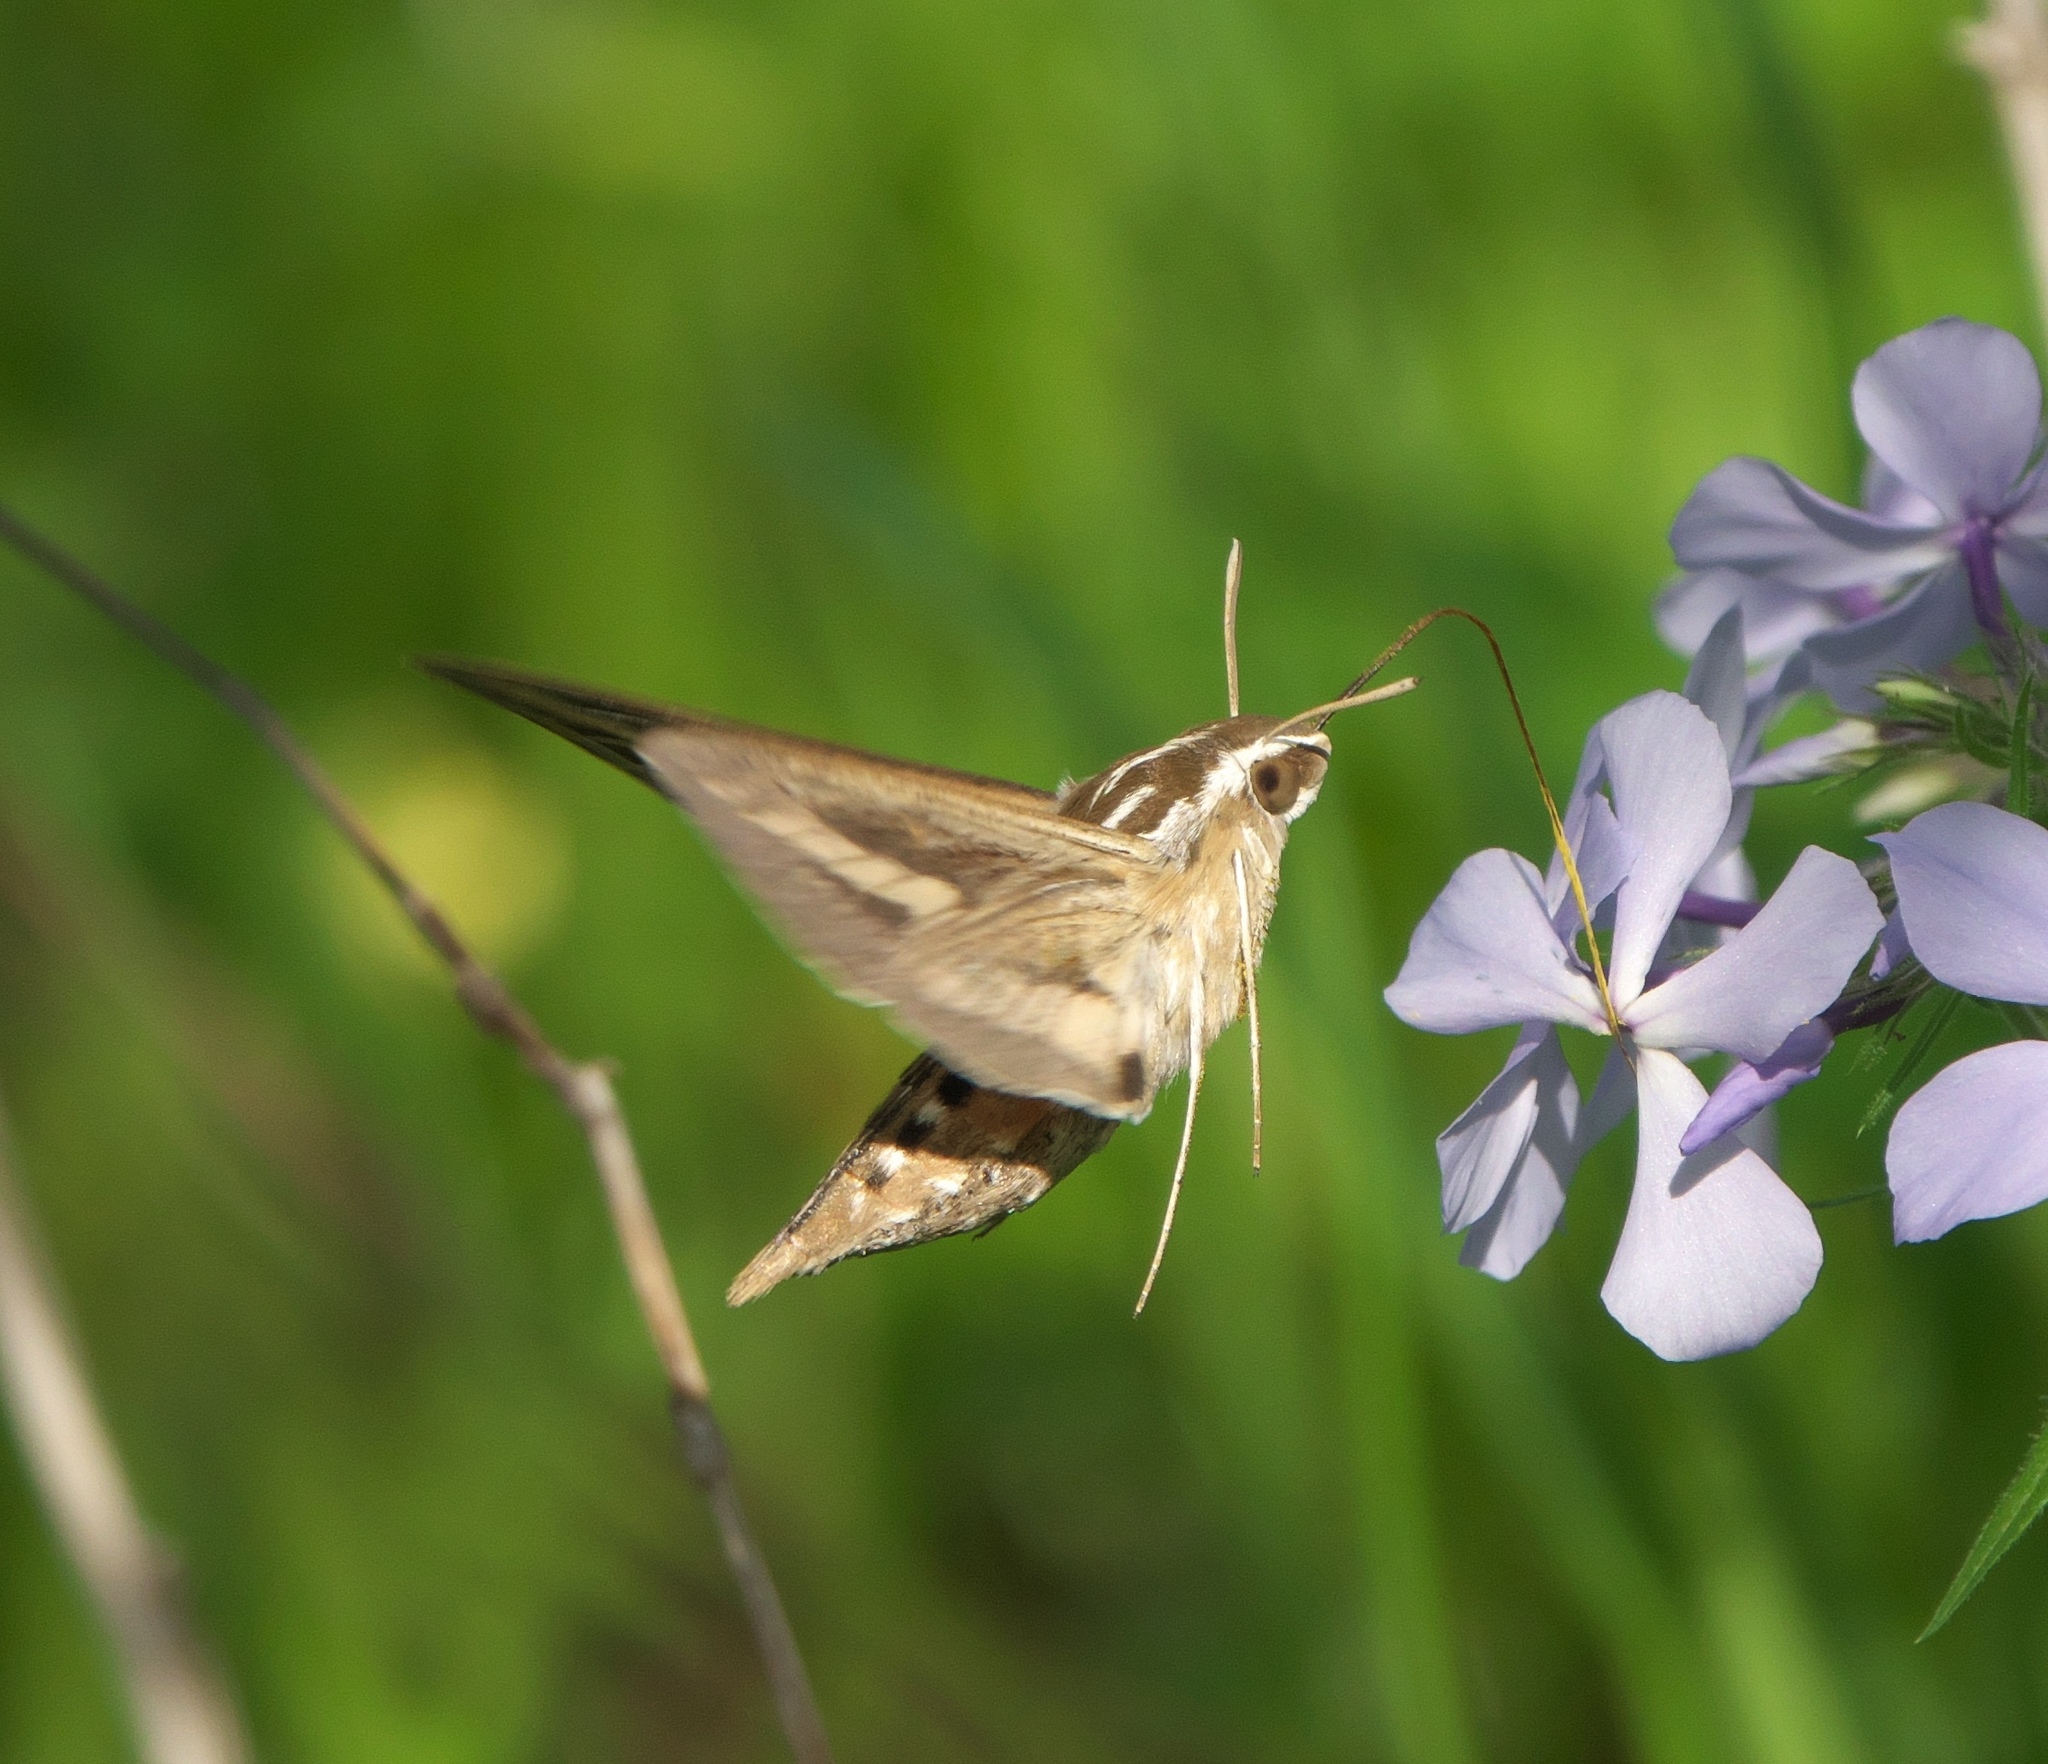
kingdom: Animalia
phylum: Arthropoda
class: Insecta
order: Lepidoptera
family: Sphingidae
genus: Hyles
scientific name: Hyles lineata
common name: White-lined sphinx
